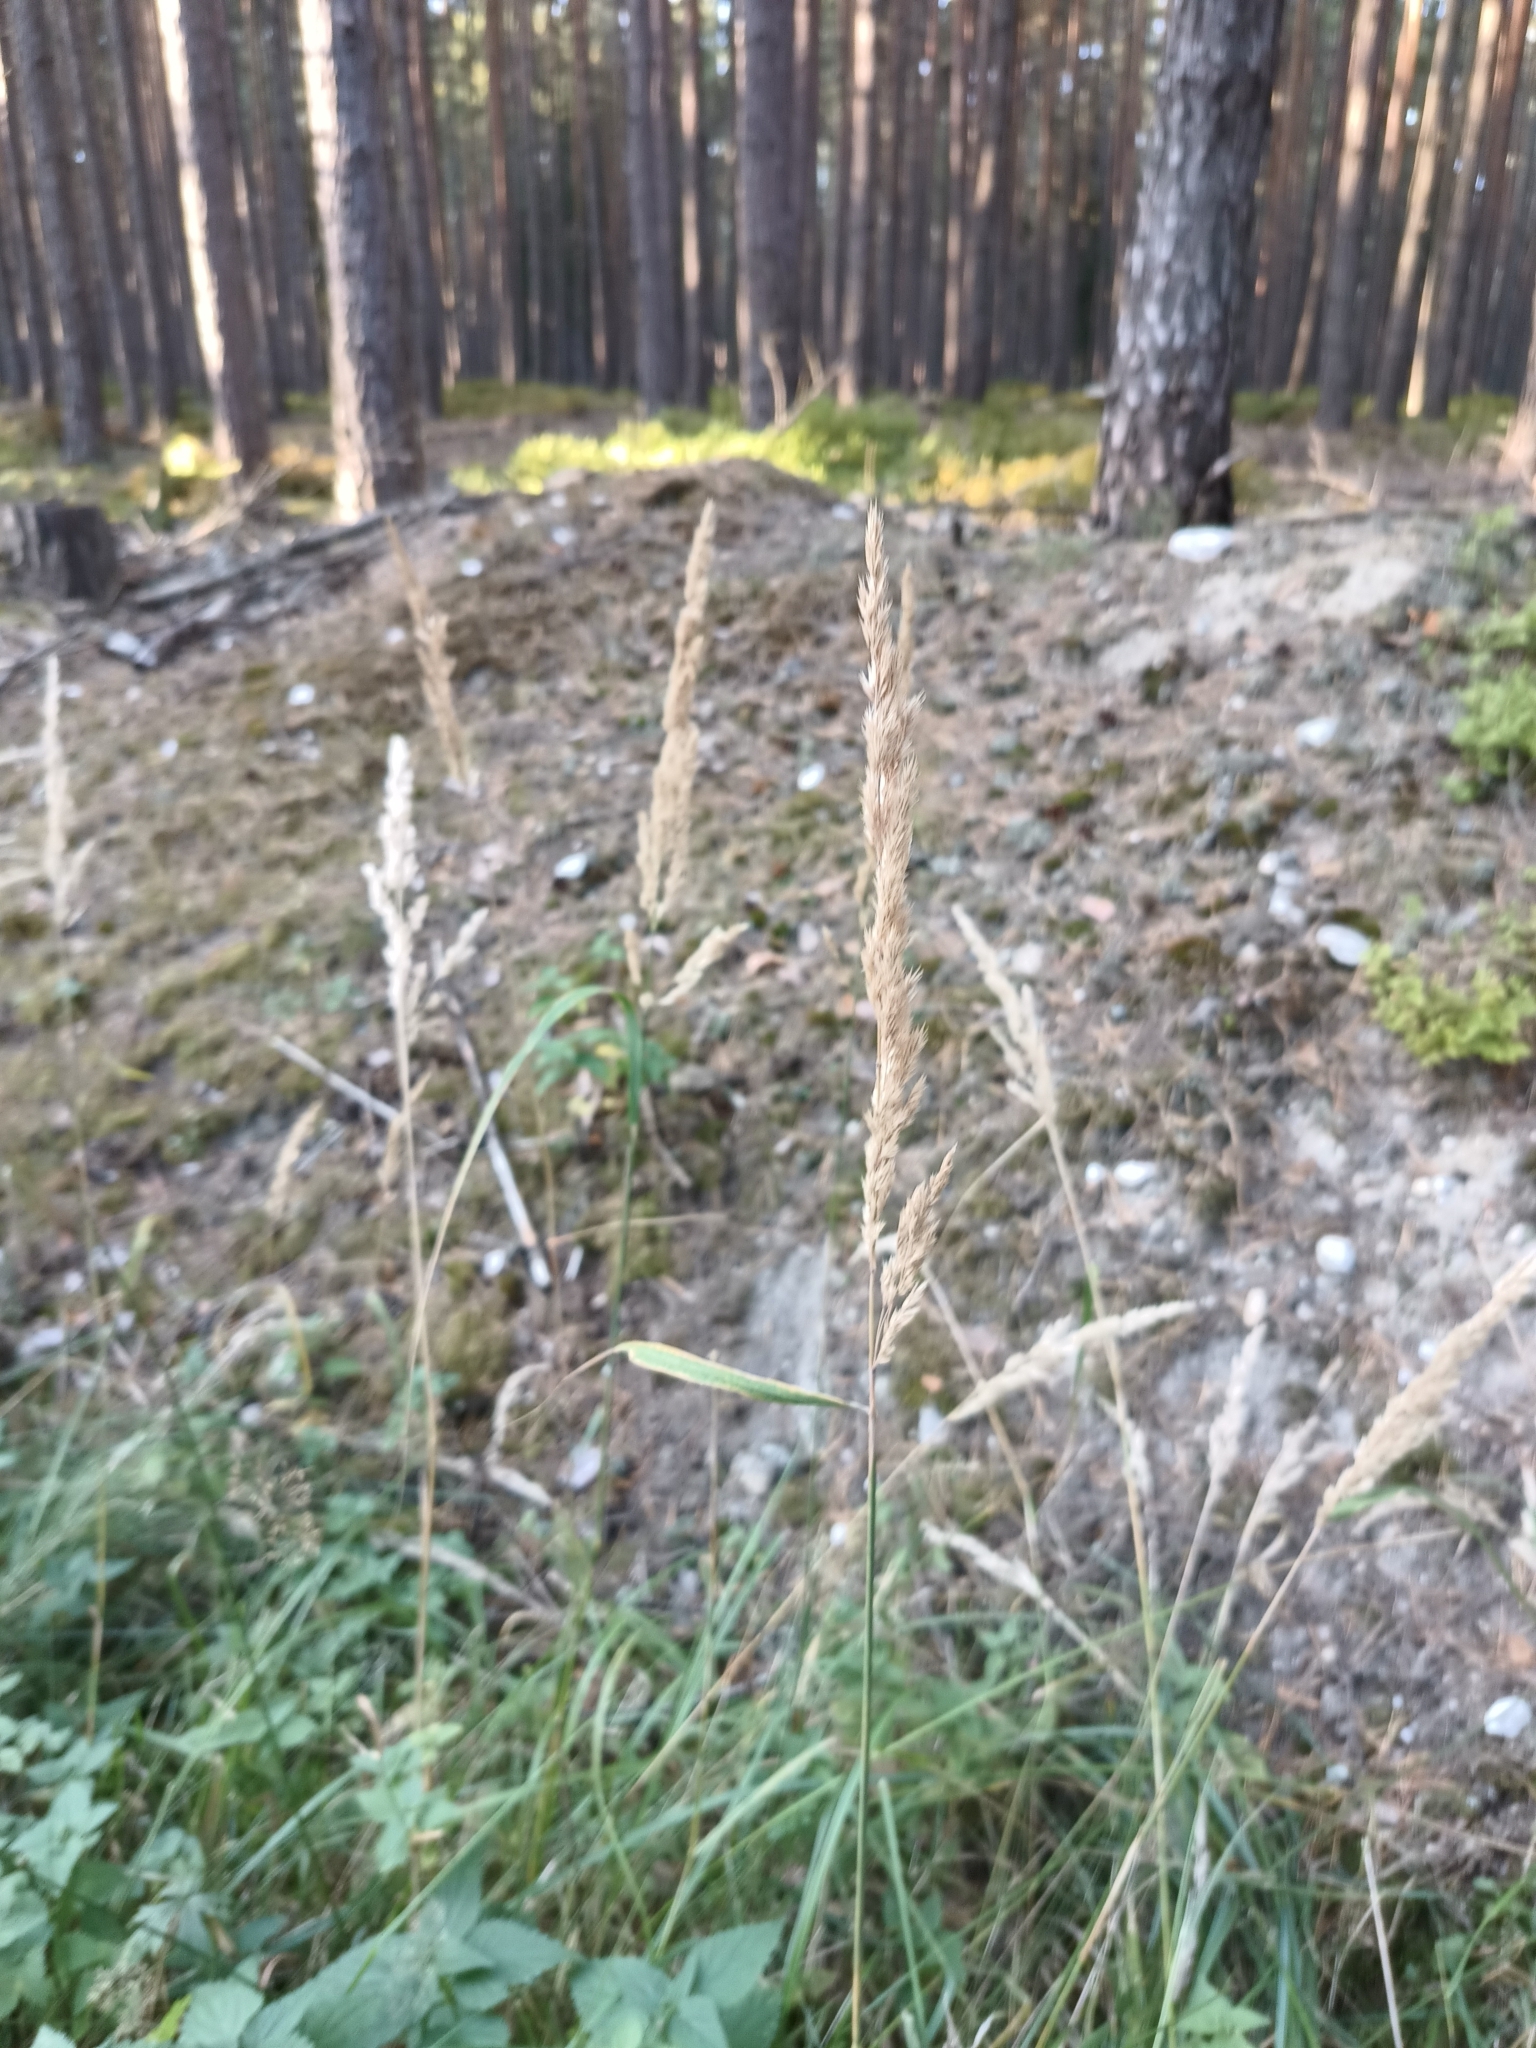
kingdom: Plantae
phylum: Tracheophyta
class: Liliopsida
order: Poales
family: Poaceae
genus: Calamagrostis
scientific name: Calamagrostis epigejos
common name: Wood small-reed
